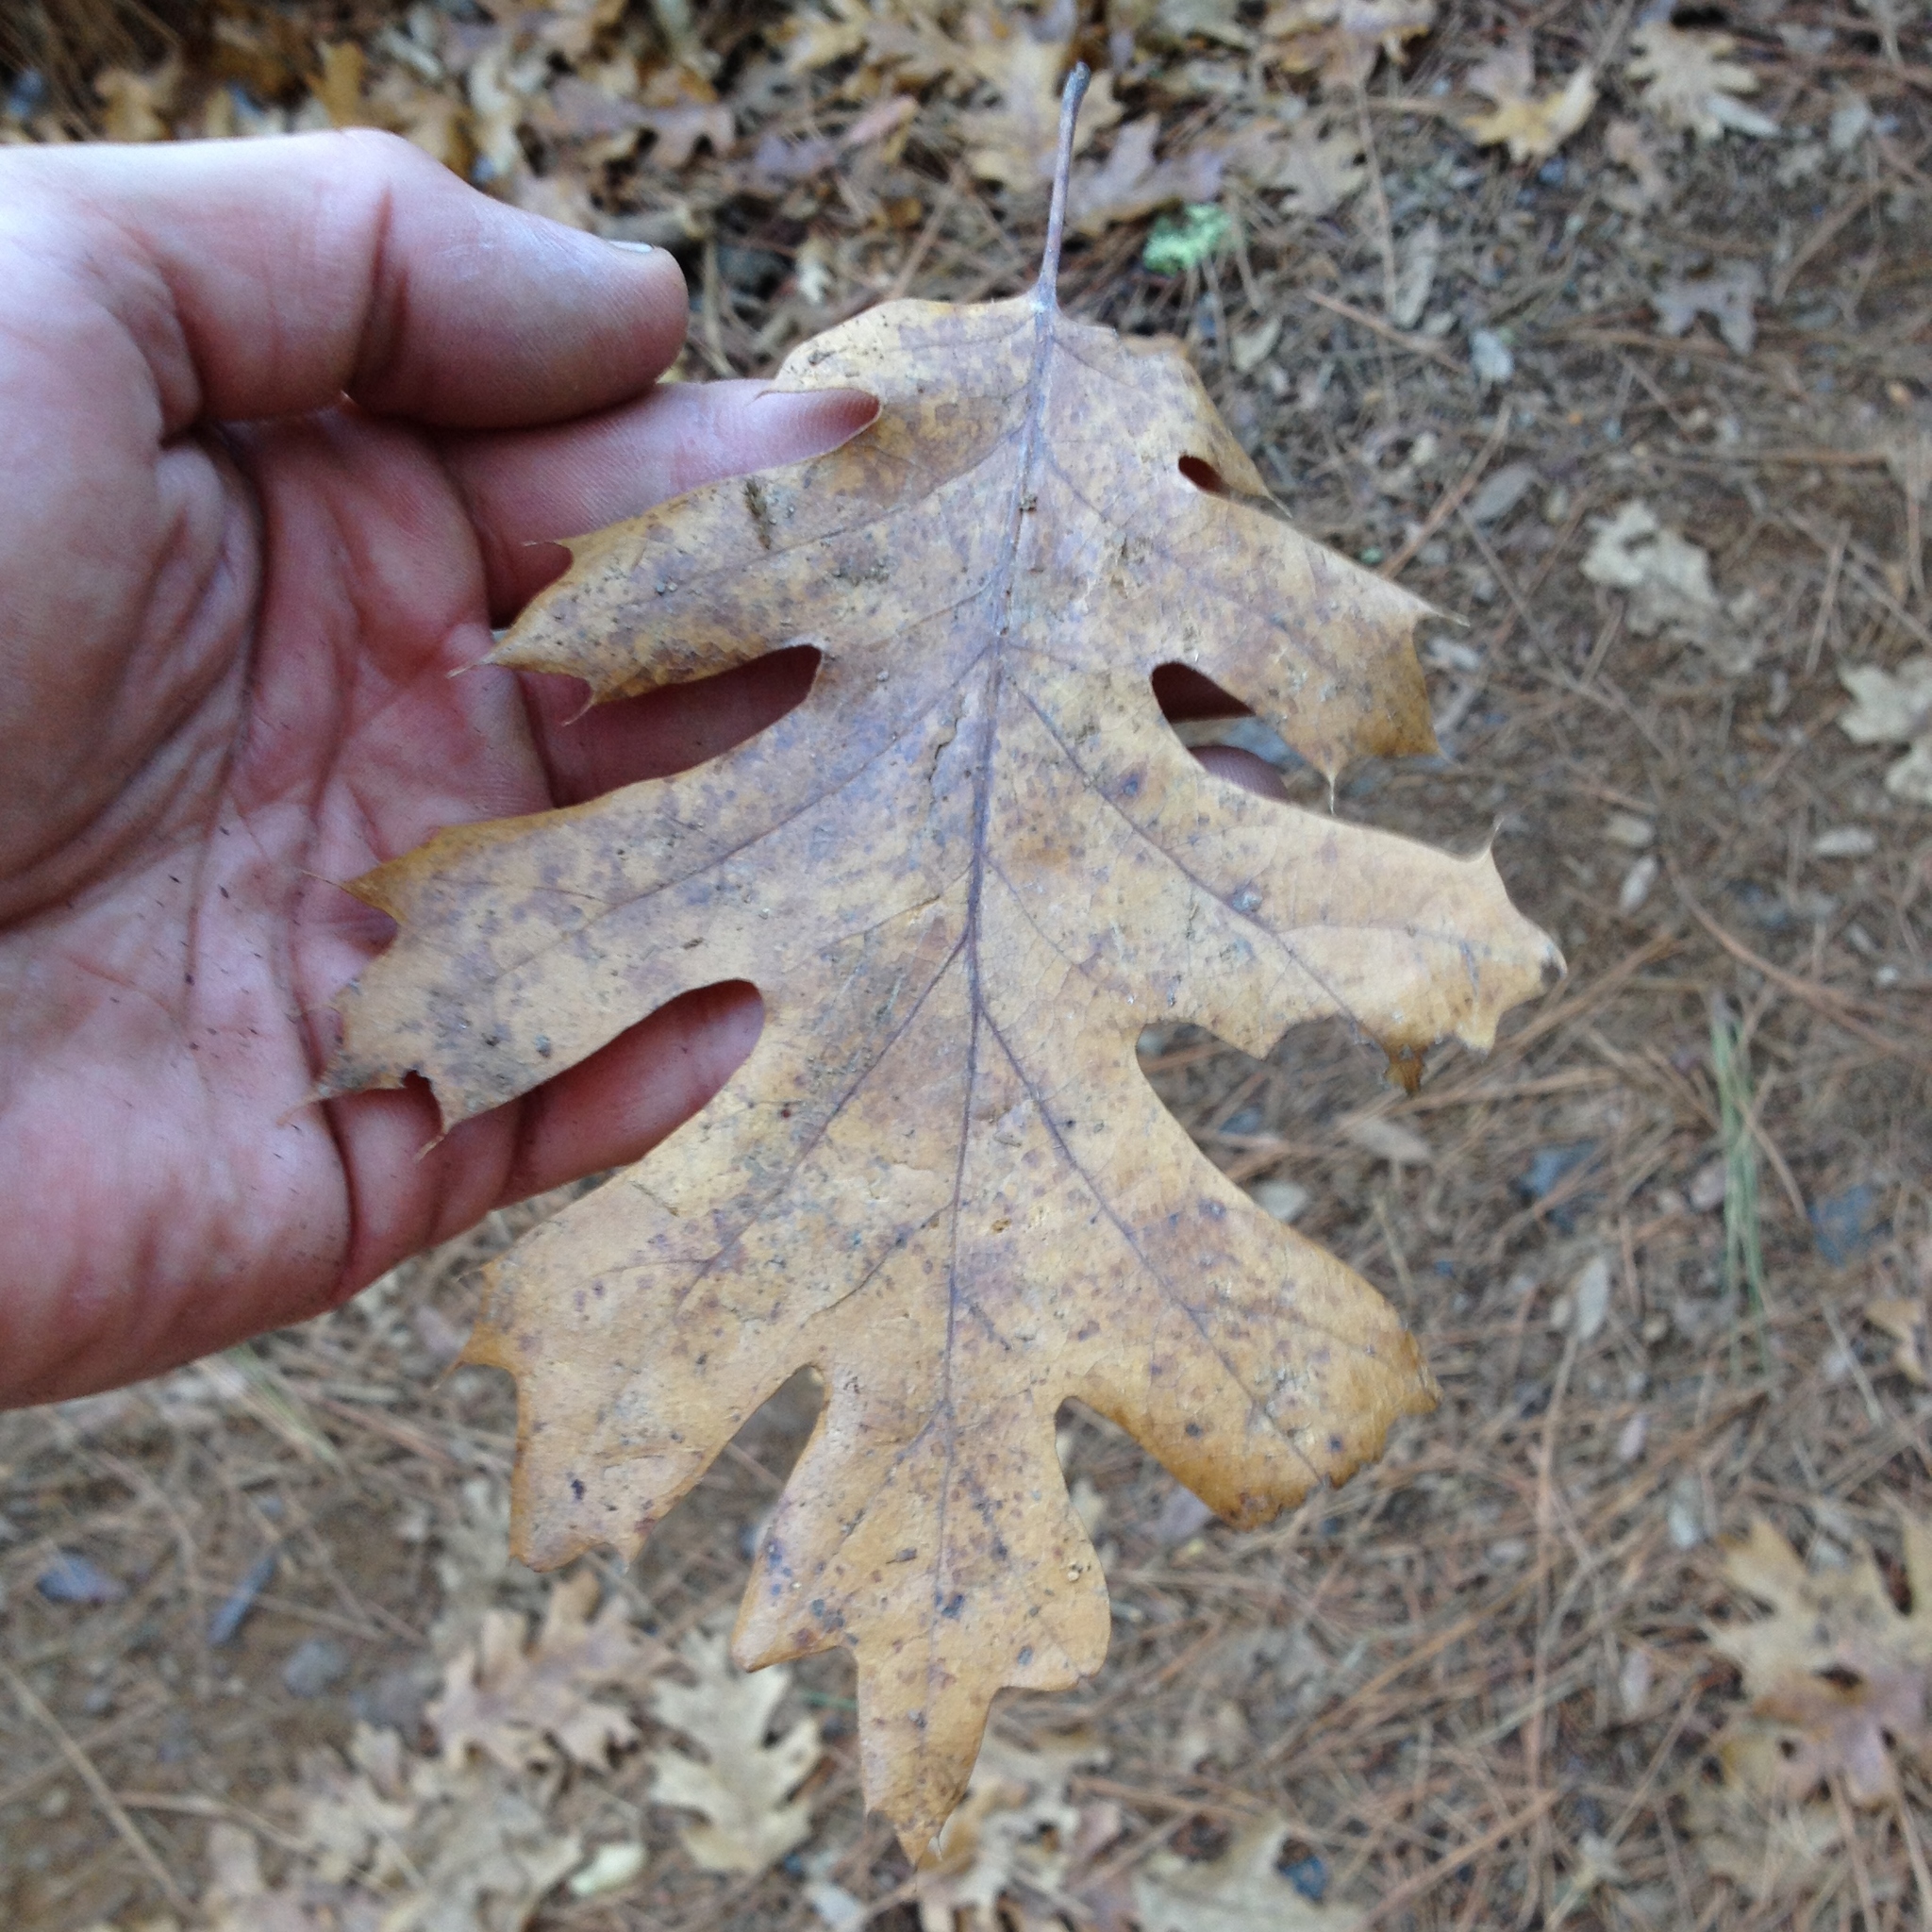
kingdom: Plantae
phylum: Tracheophyta
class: Magnoliopsida
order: Fagales
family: Fagaceae
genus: Quercus
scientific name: Quercus kelloggii
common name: California black oak
